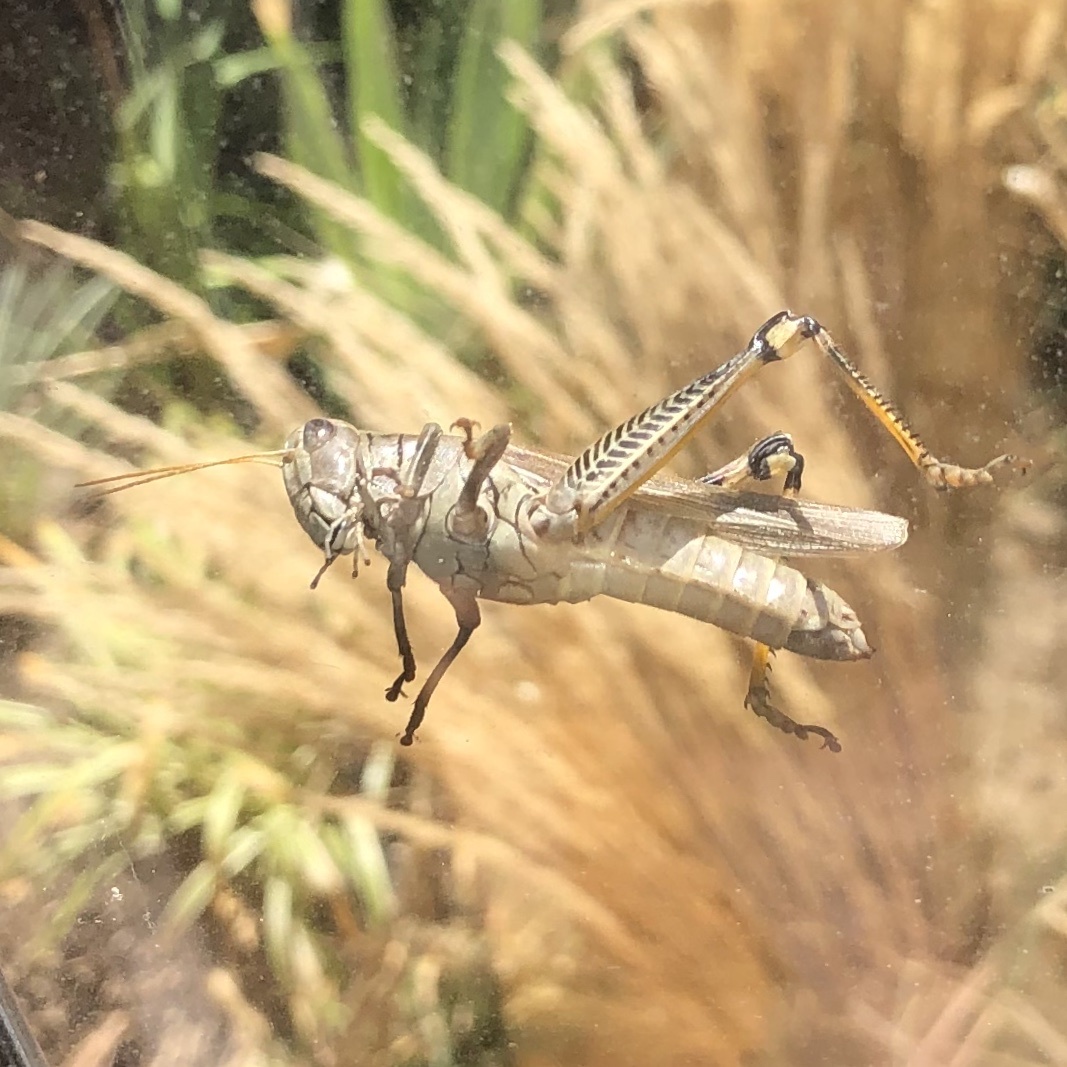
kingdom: Animalia
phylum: Arthropoda
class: Insecta
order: Orthoptera
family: Acrididae
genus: Melanoplus
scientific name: Melanoplus differentialis
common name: Differential grasshopper
